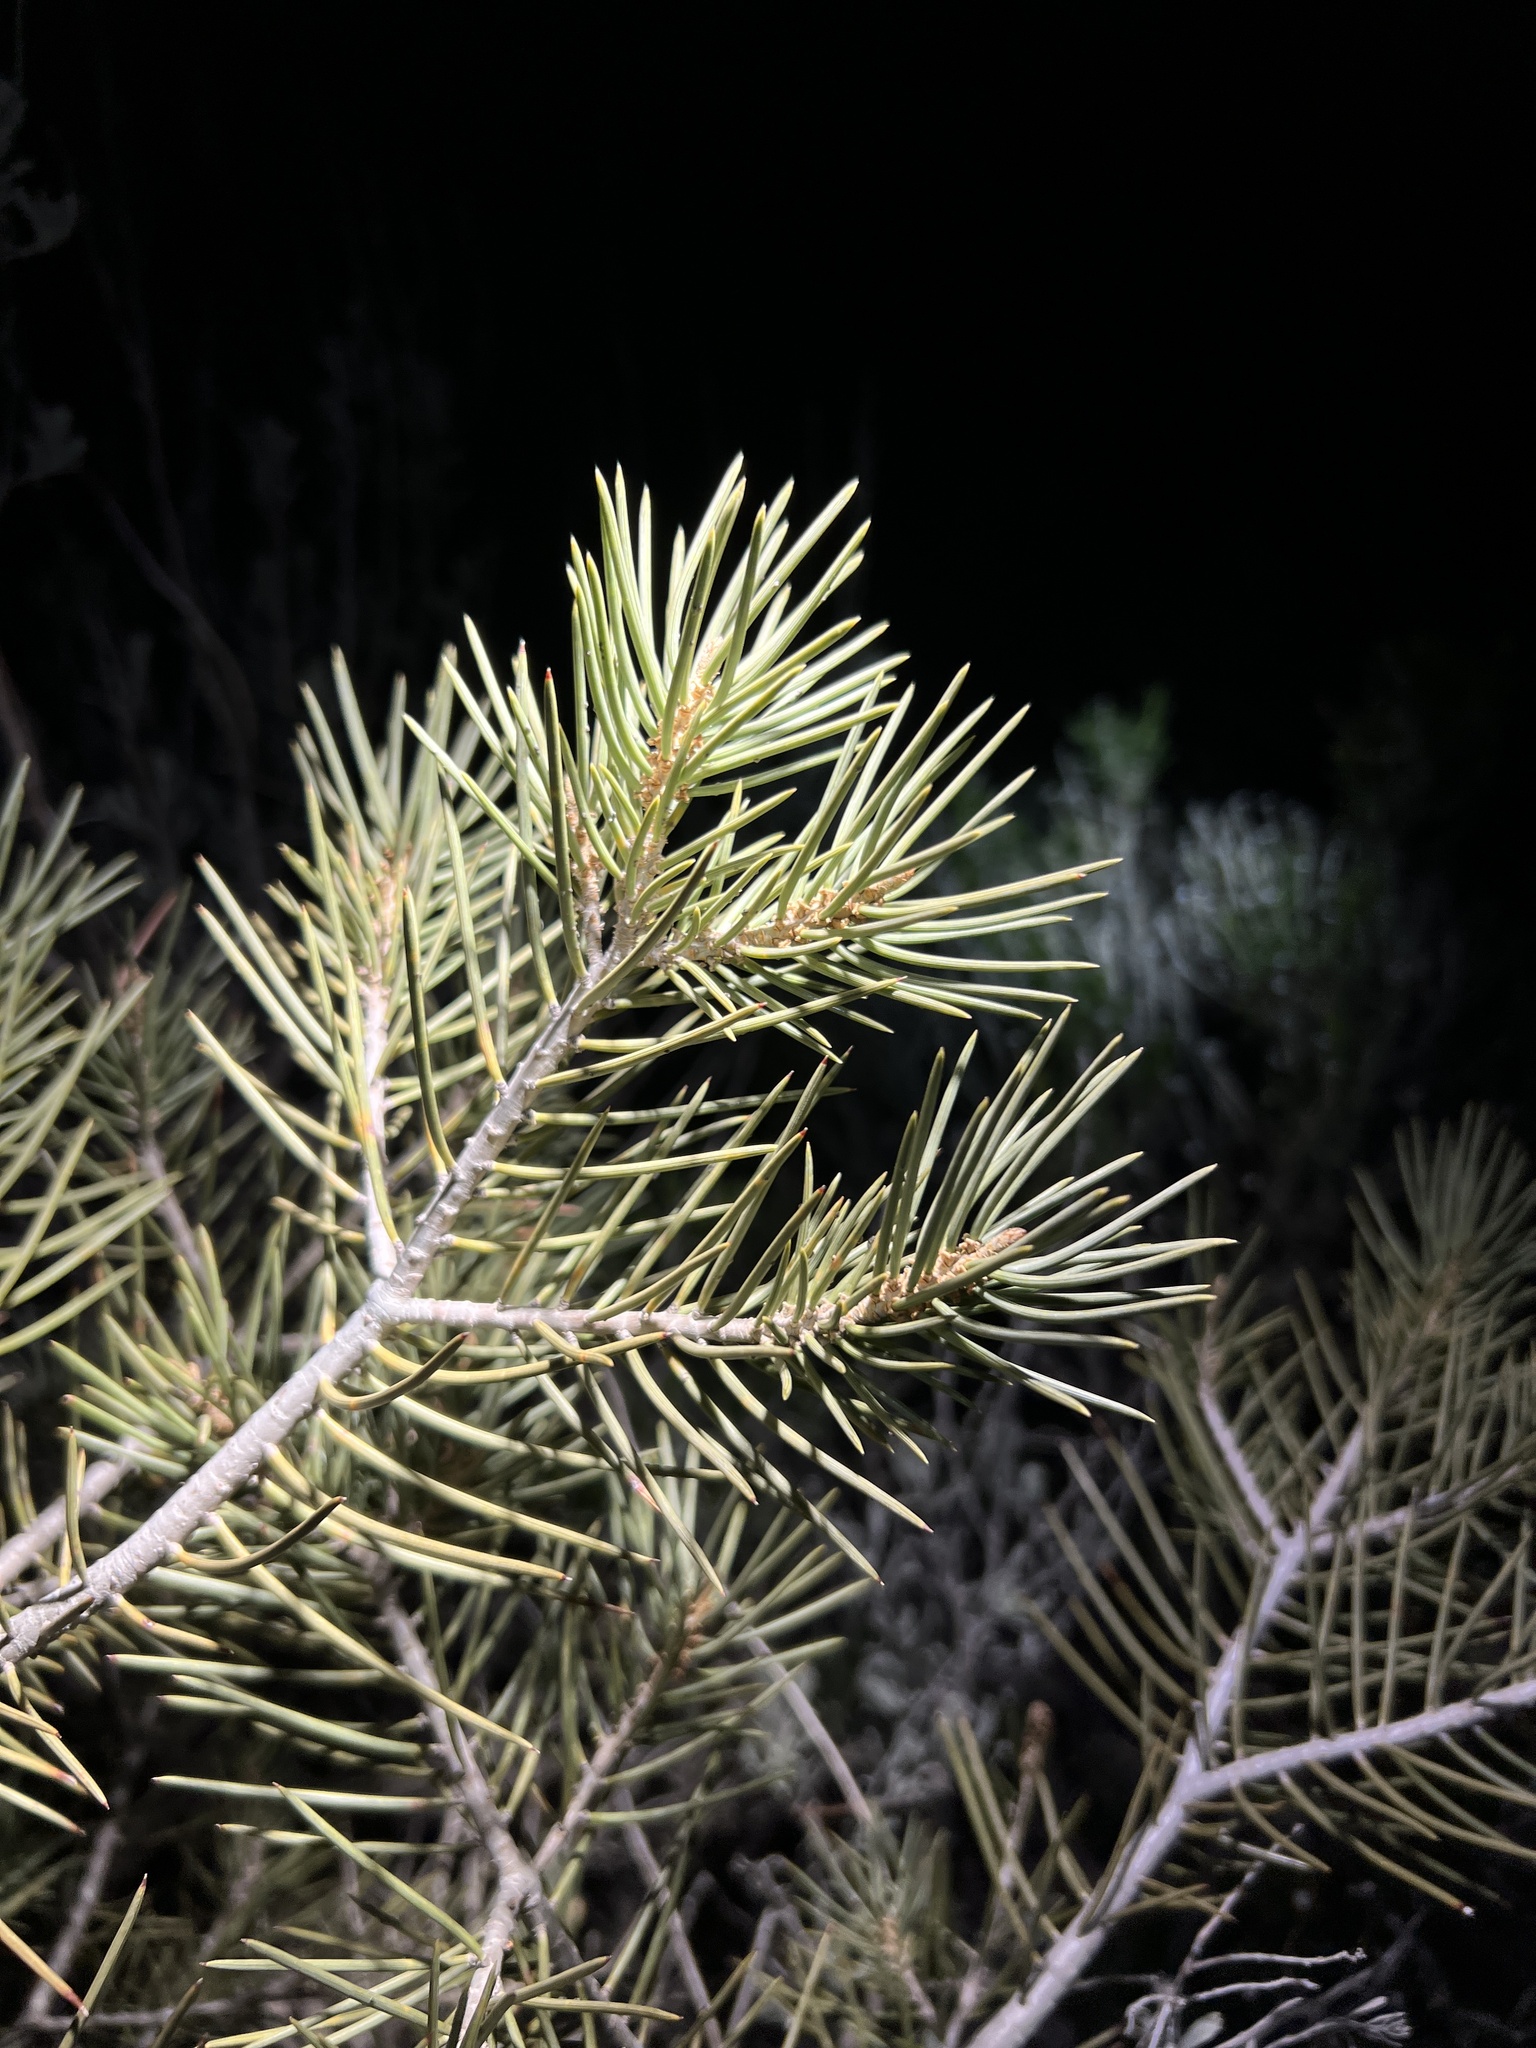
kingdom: Plantae
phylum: Tracheophyta
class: Pinopsida
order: Pinales
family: Pinaceae
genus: Pinus
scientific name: Pinus monophylla
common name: One-leaved nut pine
